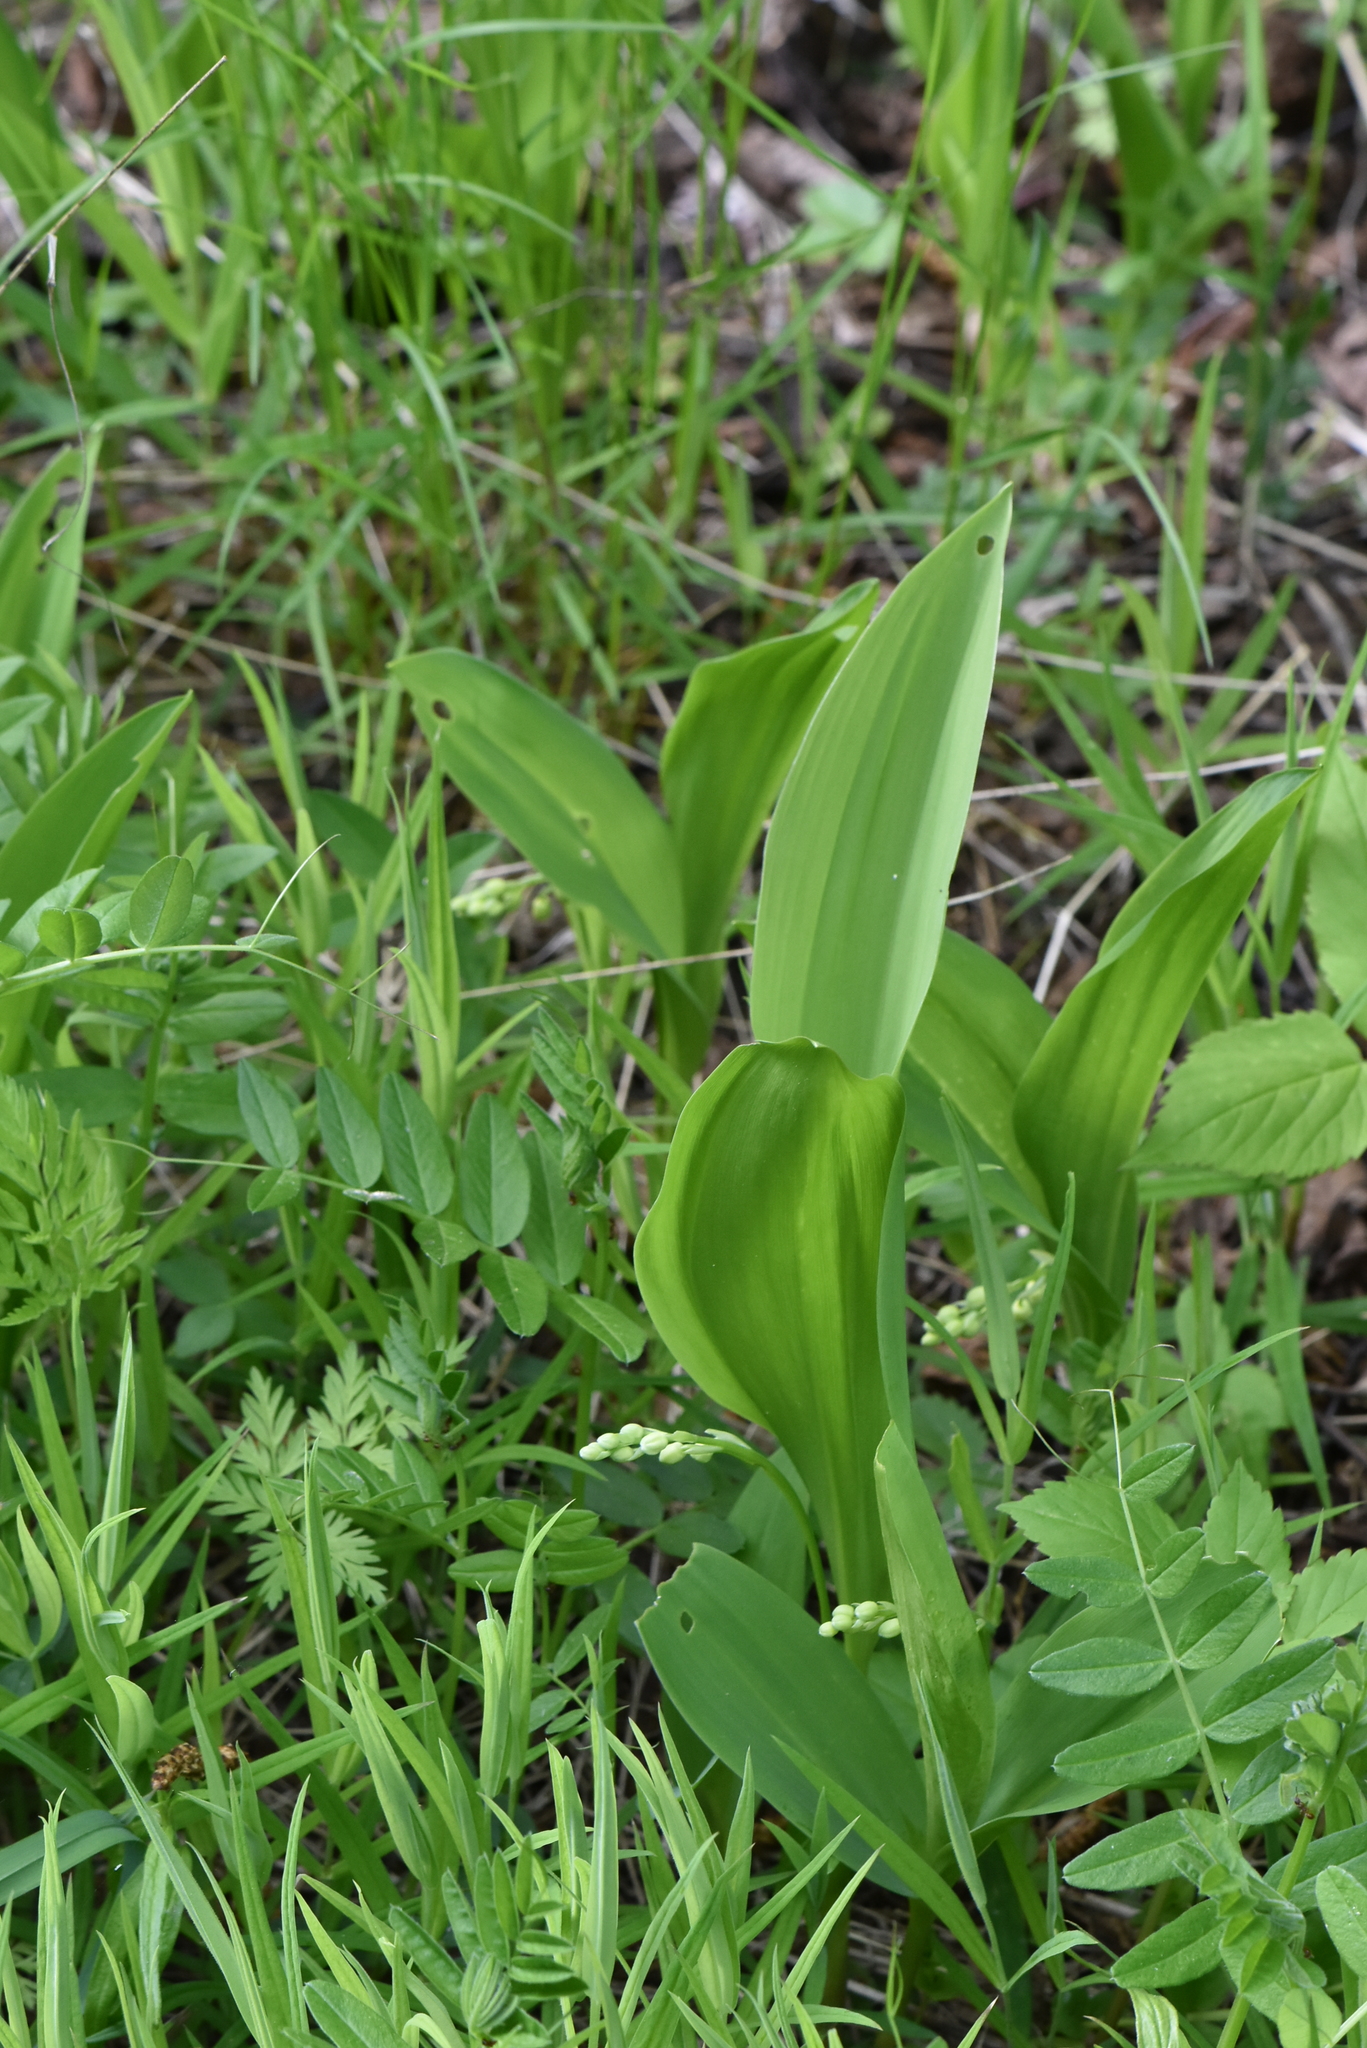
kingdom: Plantae
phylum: Tracheophyta
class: Liliopsida
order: Asparagales
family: Asparagaceae
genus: Convallaria
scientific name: Convallaria majalis
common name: Lily-of-the-valley
